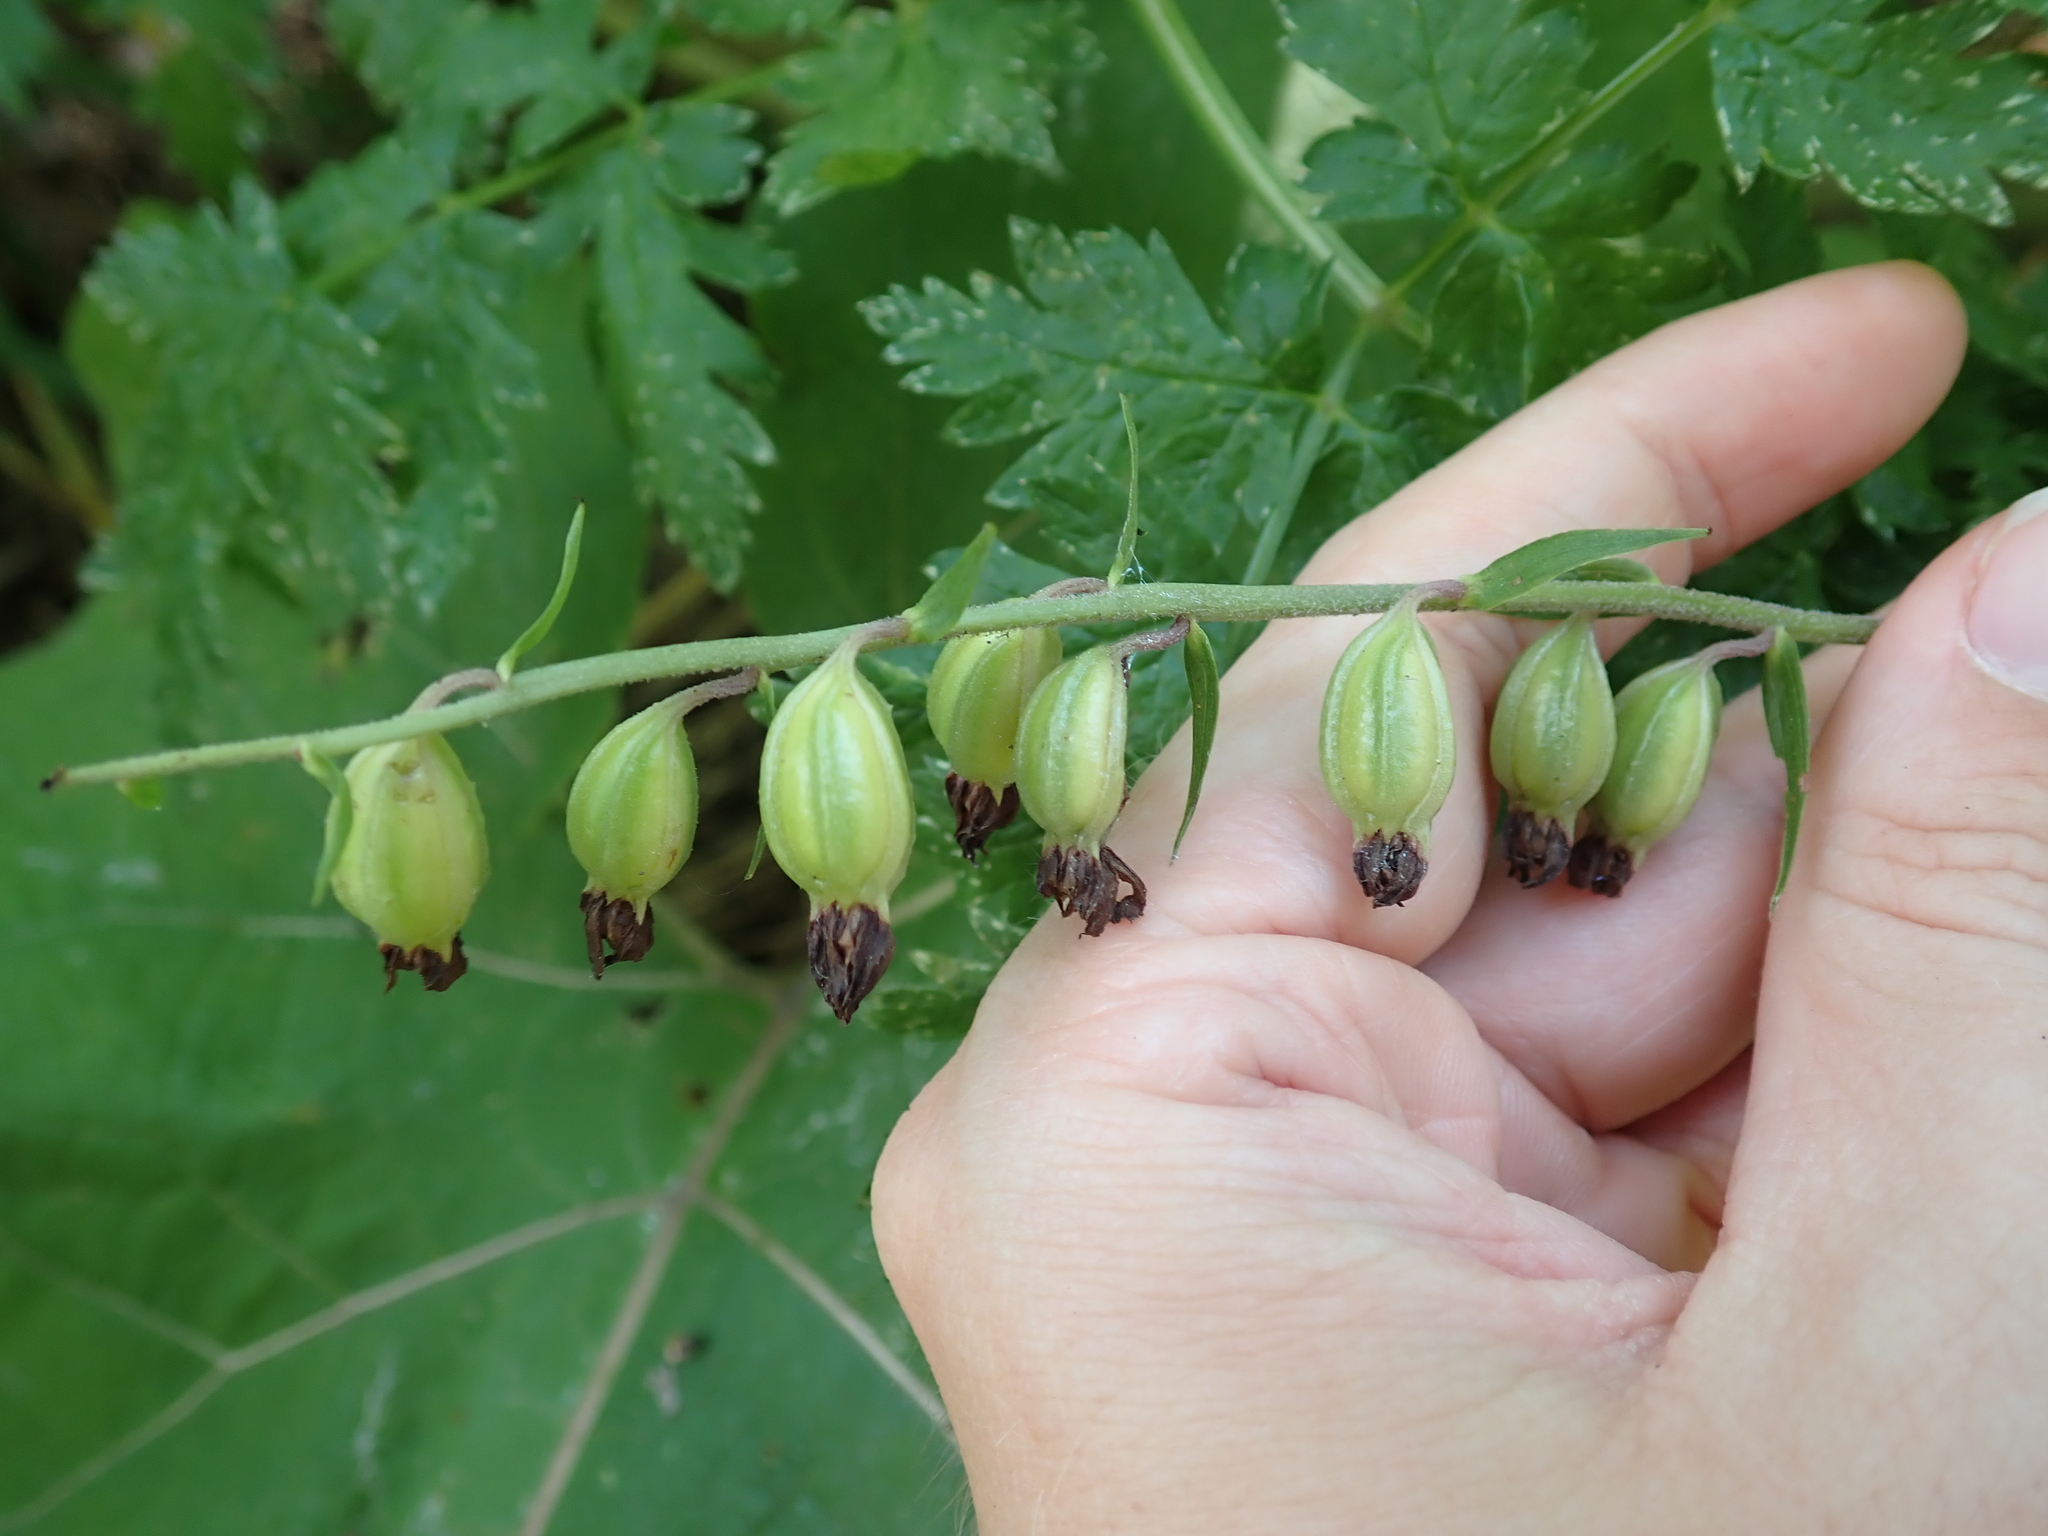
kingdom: Plantae
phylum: Tracheophyta
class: Liliopsida
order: Asparagales
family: Orchidaceae
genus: Epipactis
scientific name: Epipactis helleborine
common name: Broad-leaved helleborine
